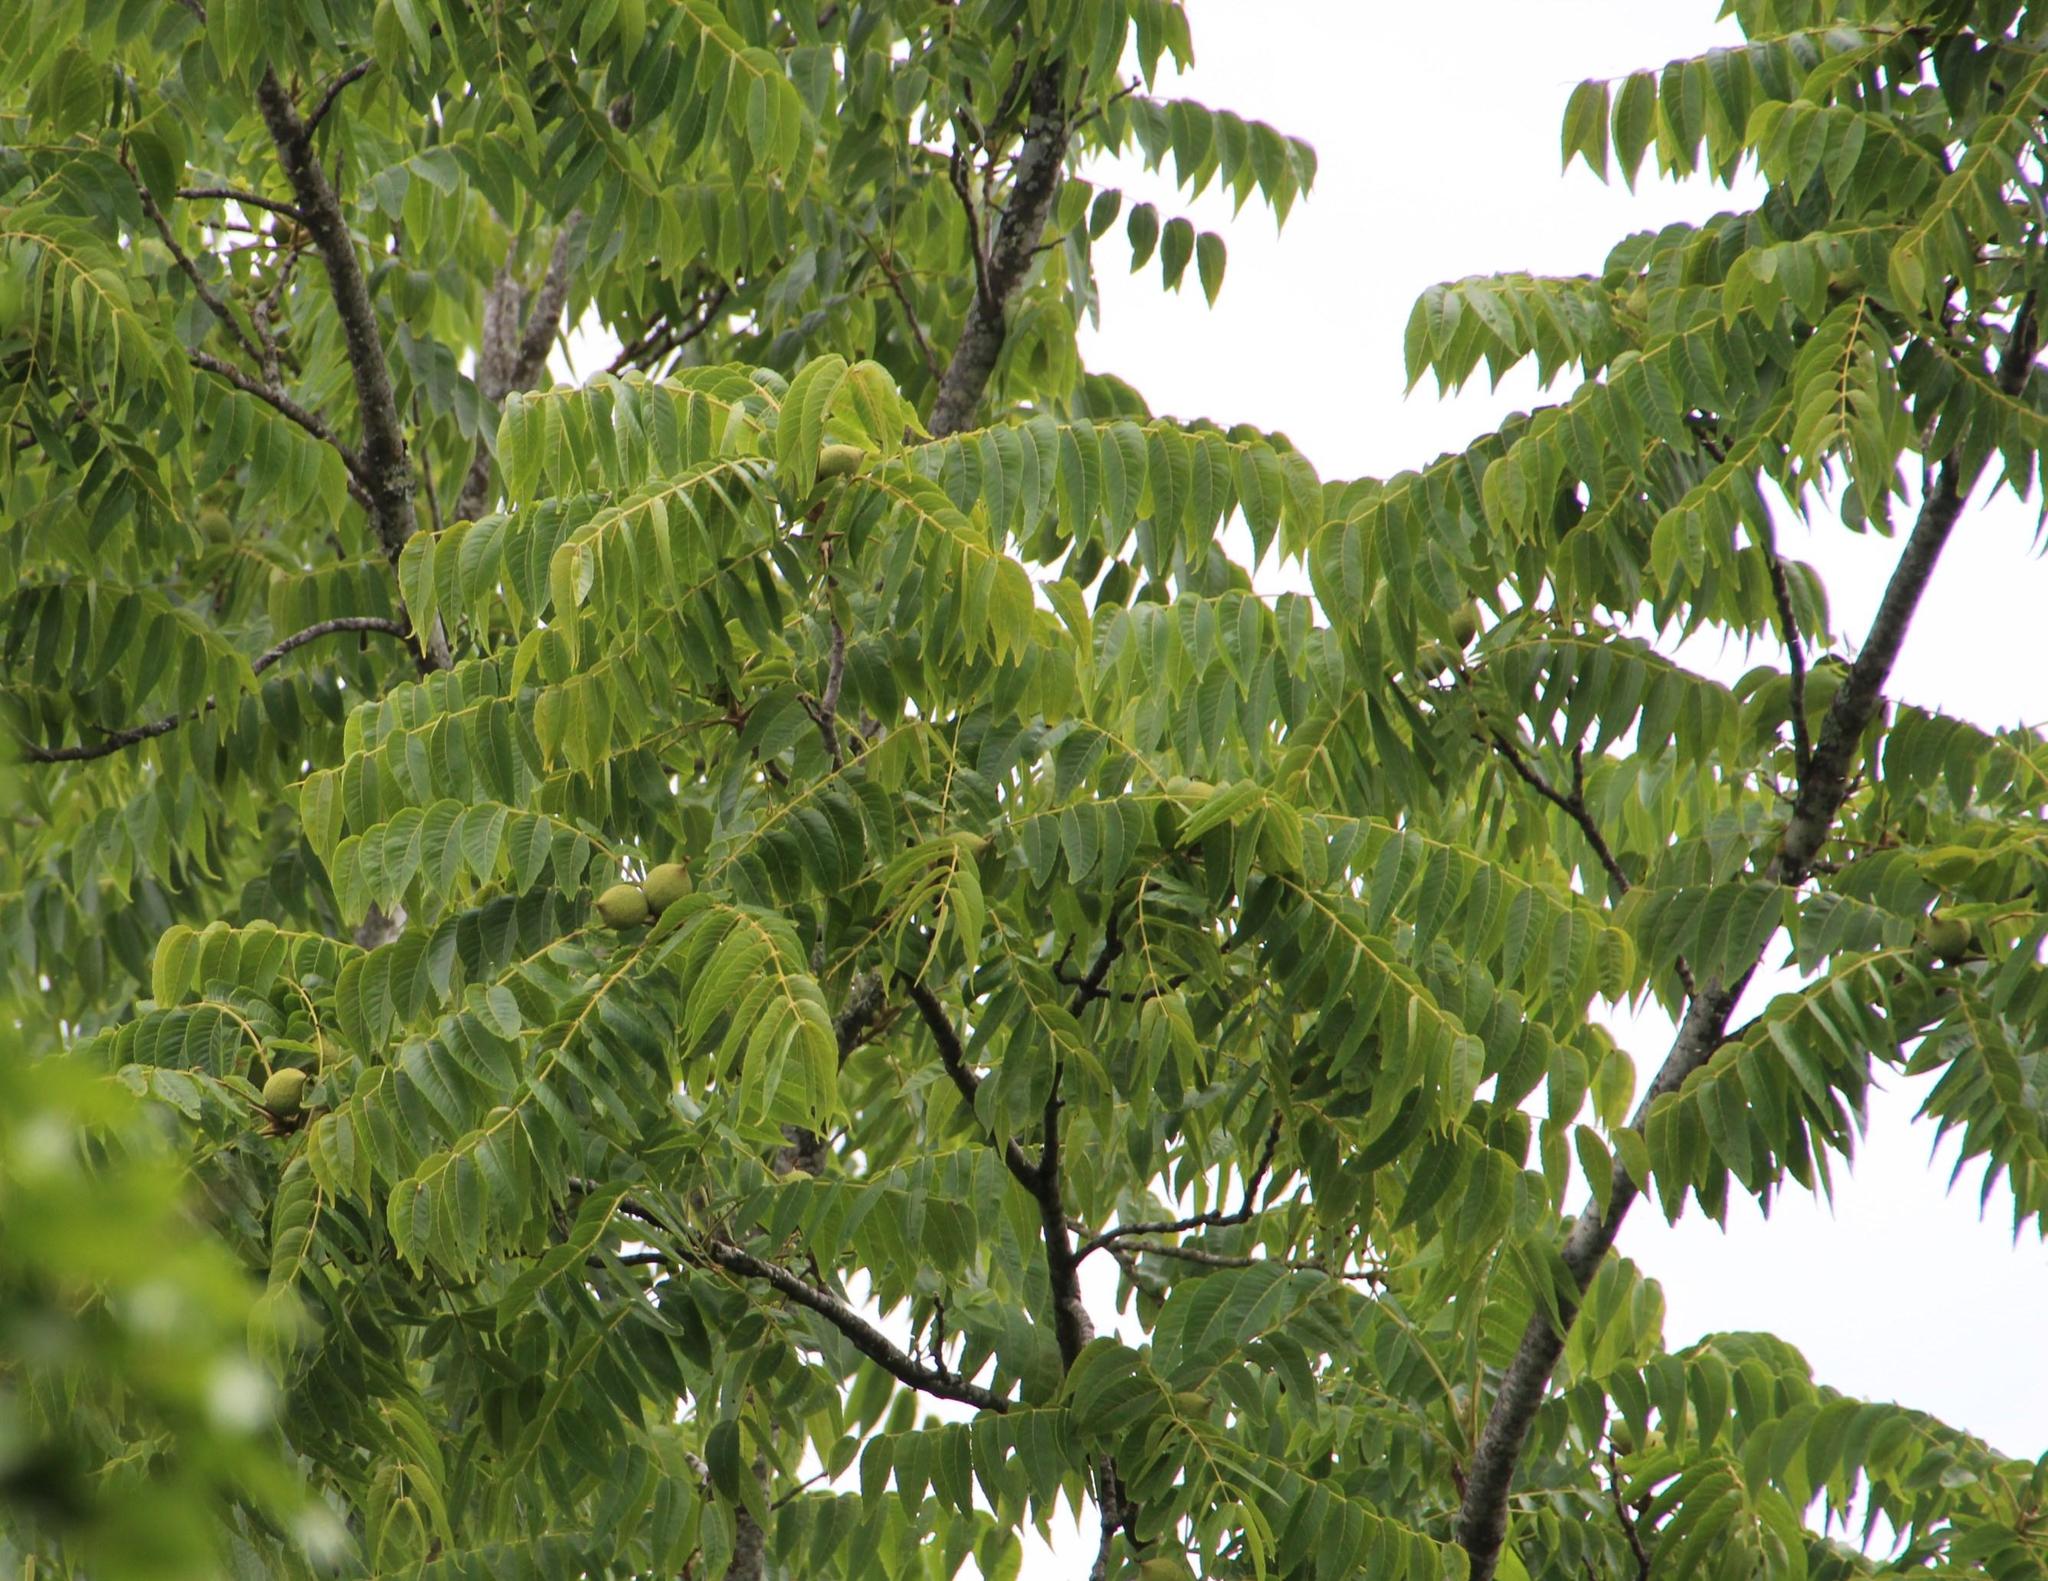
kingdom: Plantae
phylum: Tracheophyta
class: Magnoliopsida
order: Fagales
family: Juglandaceae
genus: Juglans
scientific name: Juglans nigra
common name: Black walnut
